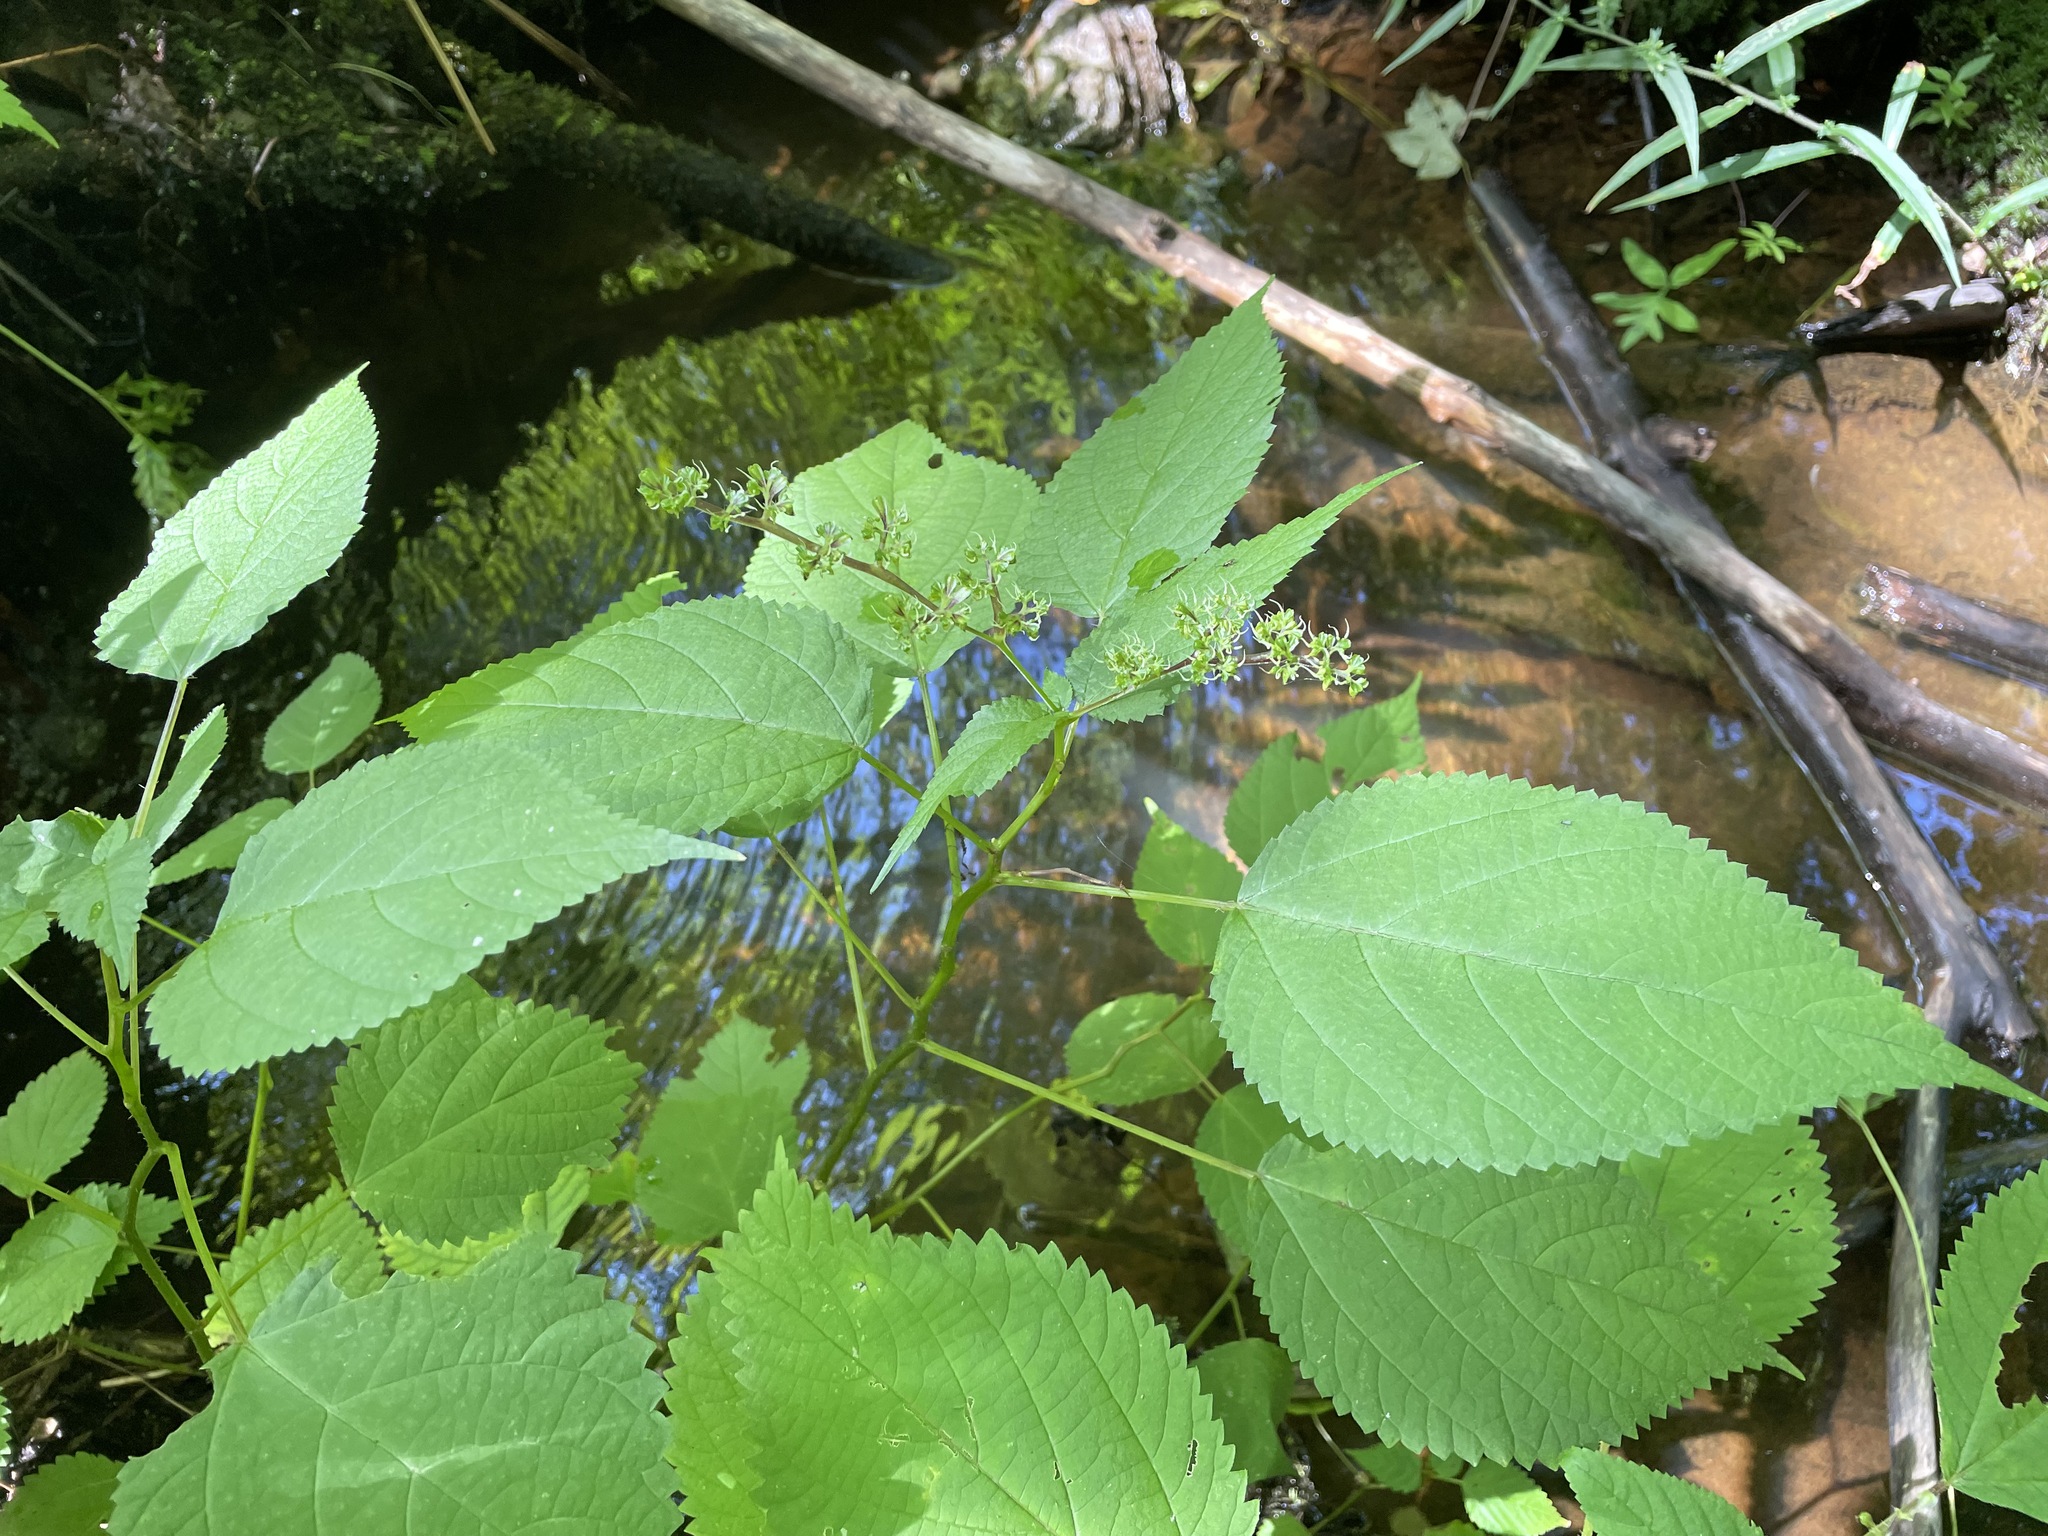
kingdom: Plantae
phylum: Tracheophyta
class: Magnoliopsida
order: Rosales
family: Urticaceae
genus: Laportea
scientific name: Laportea canadensis
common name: Canada nettle
